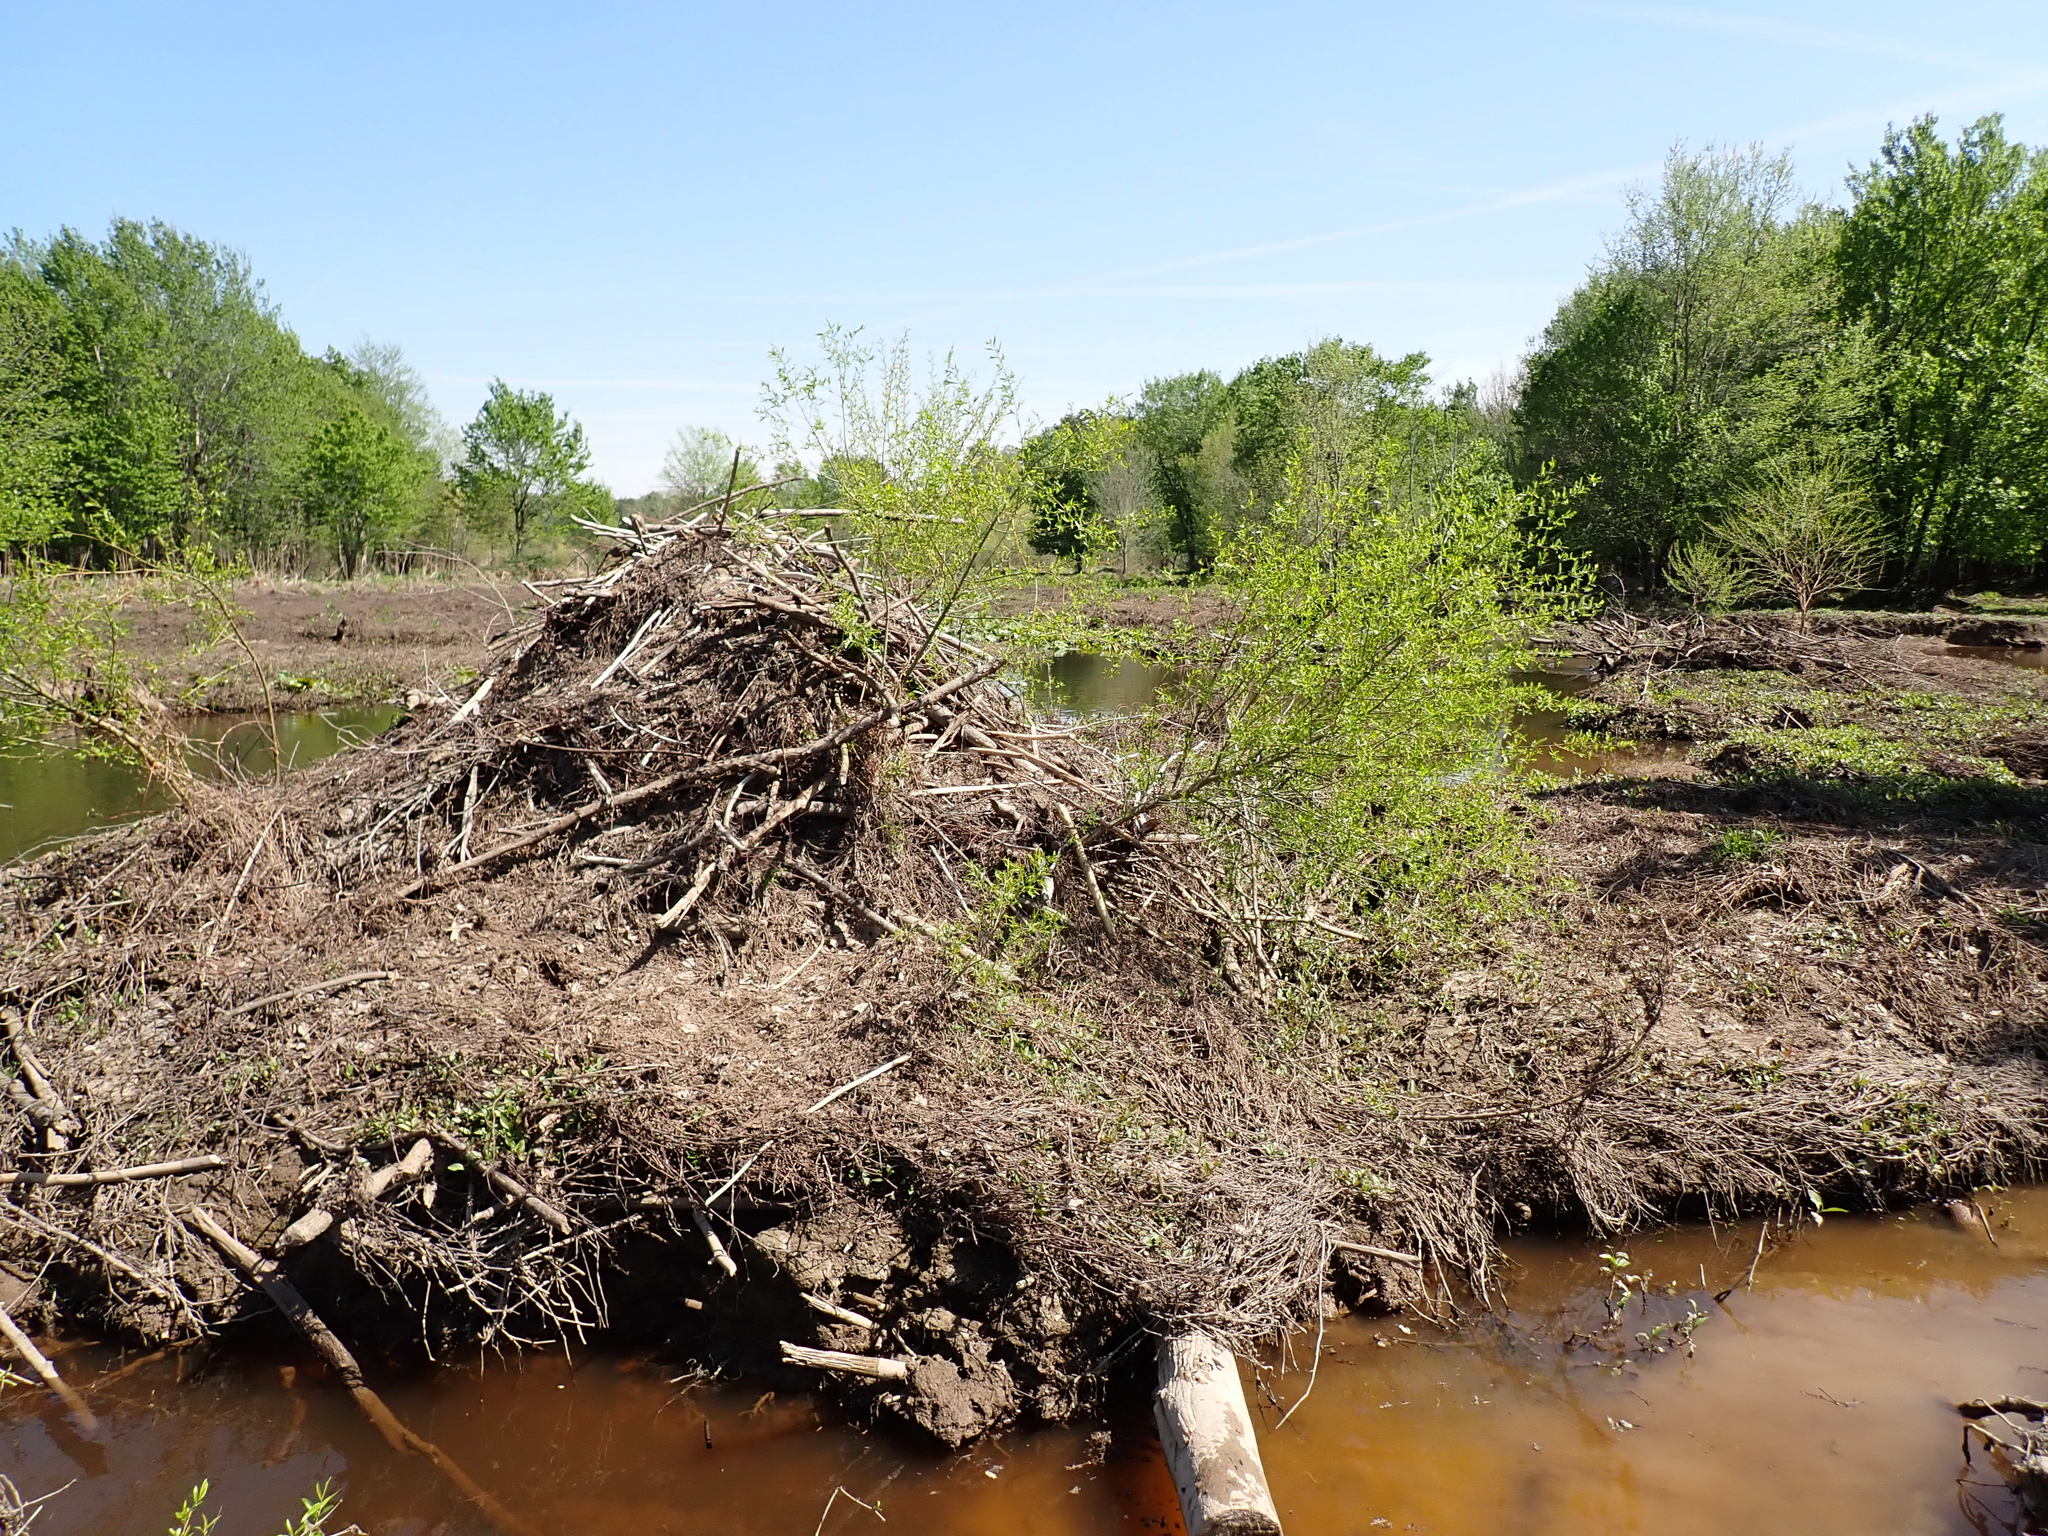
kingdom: Animalia
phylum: Chordata
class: Mammalia
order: Rodentia
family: Castoridae
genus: Castor
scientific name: Castor canadensis
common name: American beaver
